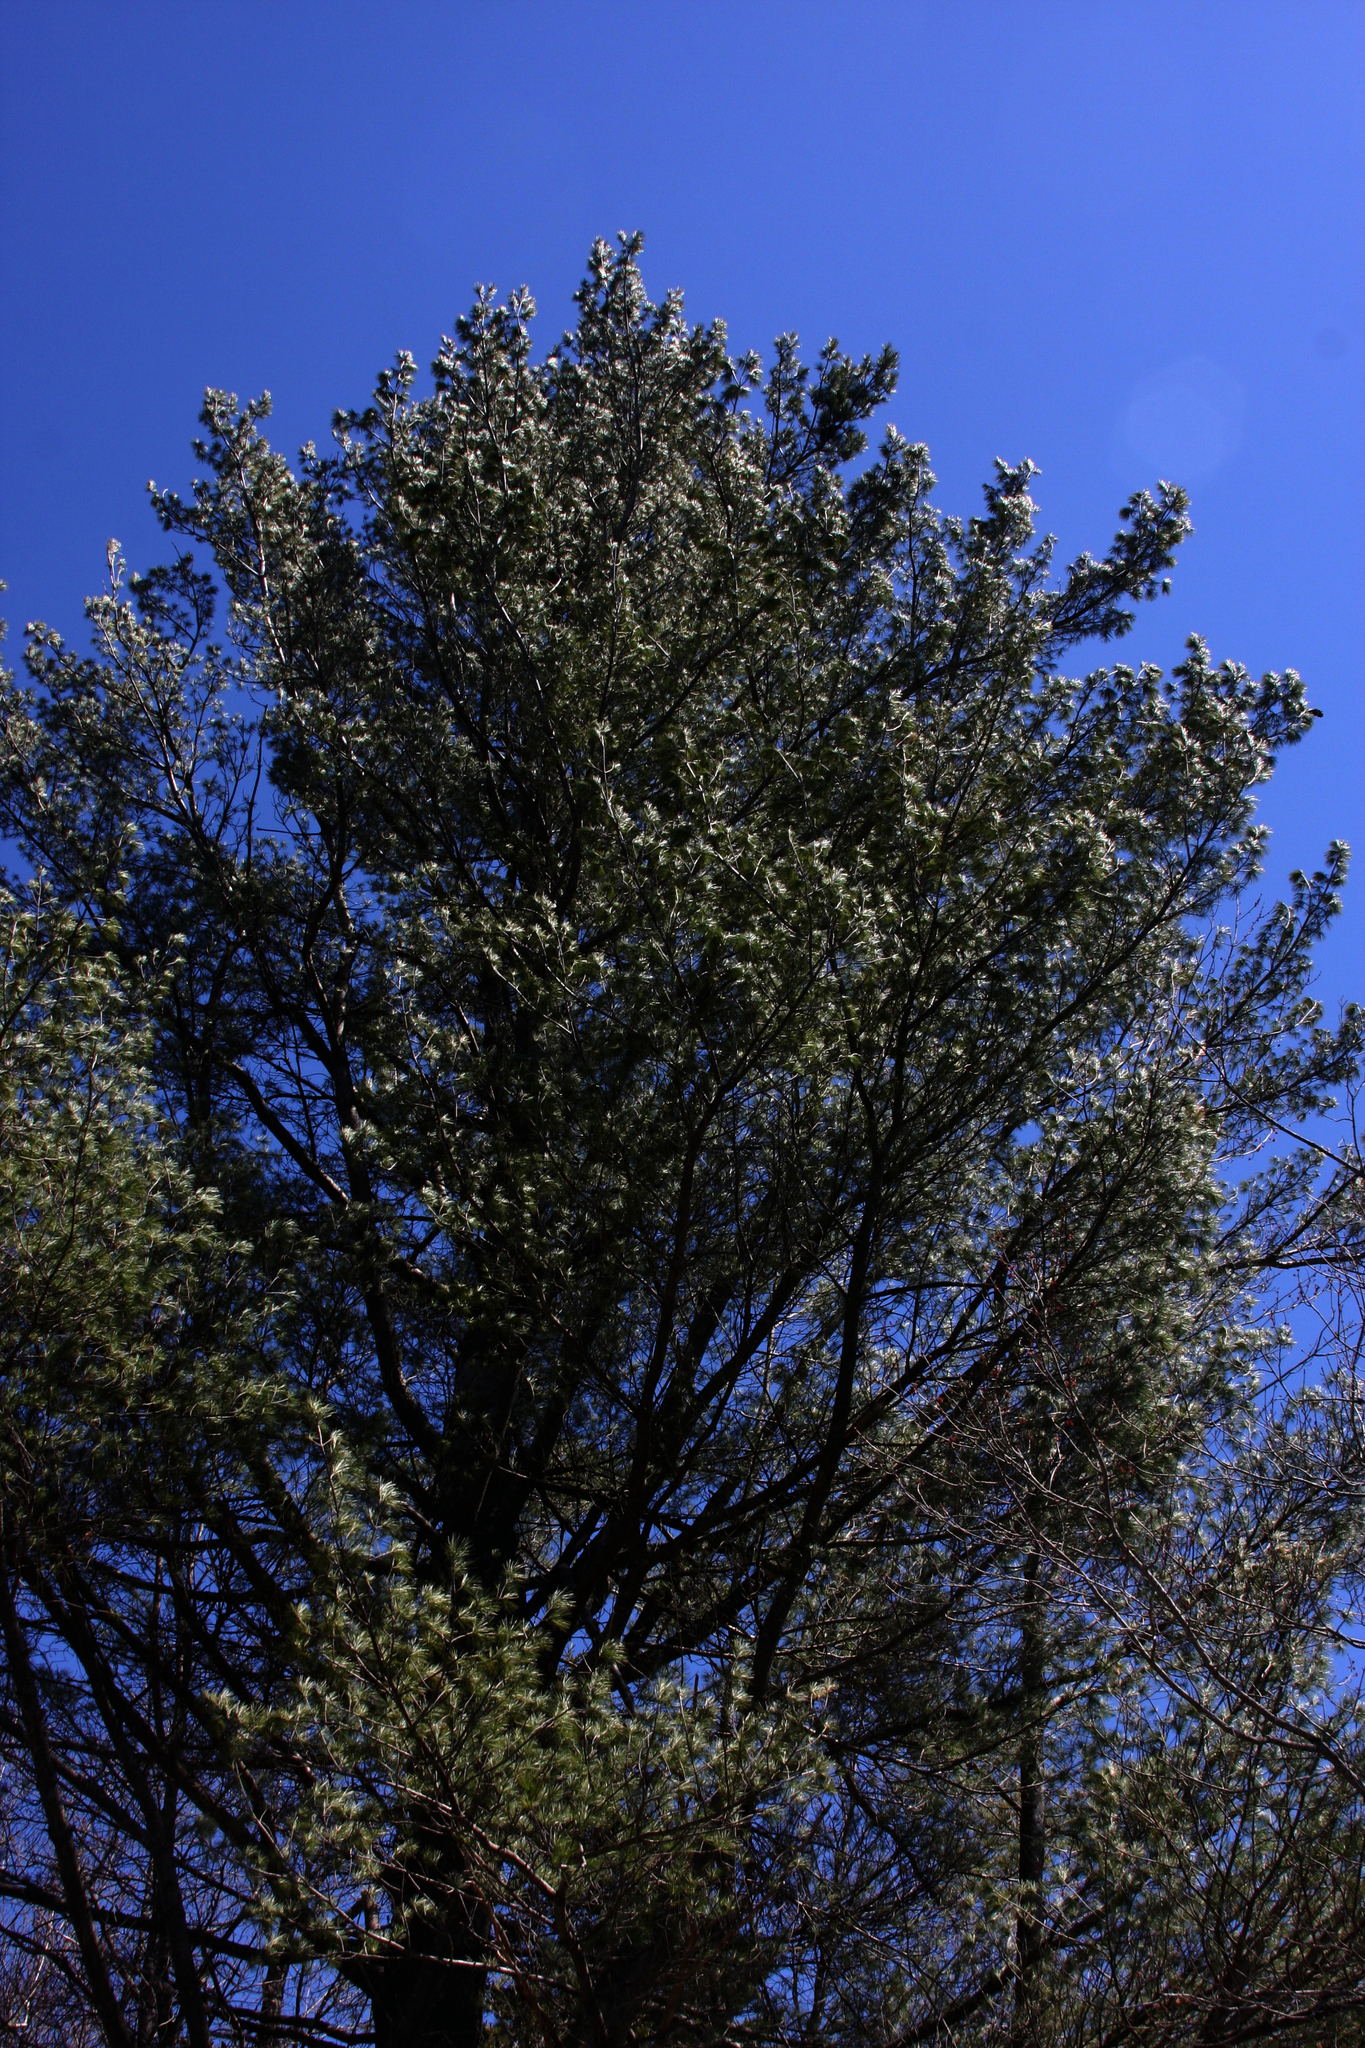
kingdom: Plantae
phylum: Tracheophyta
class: Pinopsida
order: Pinales
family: Pinaceae
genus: Pinus
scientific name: Pinus strobus
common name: Weymouth pine
